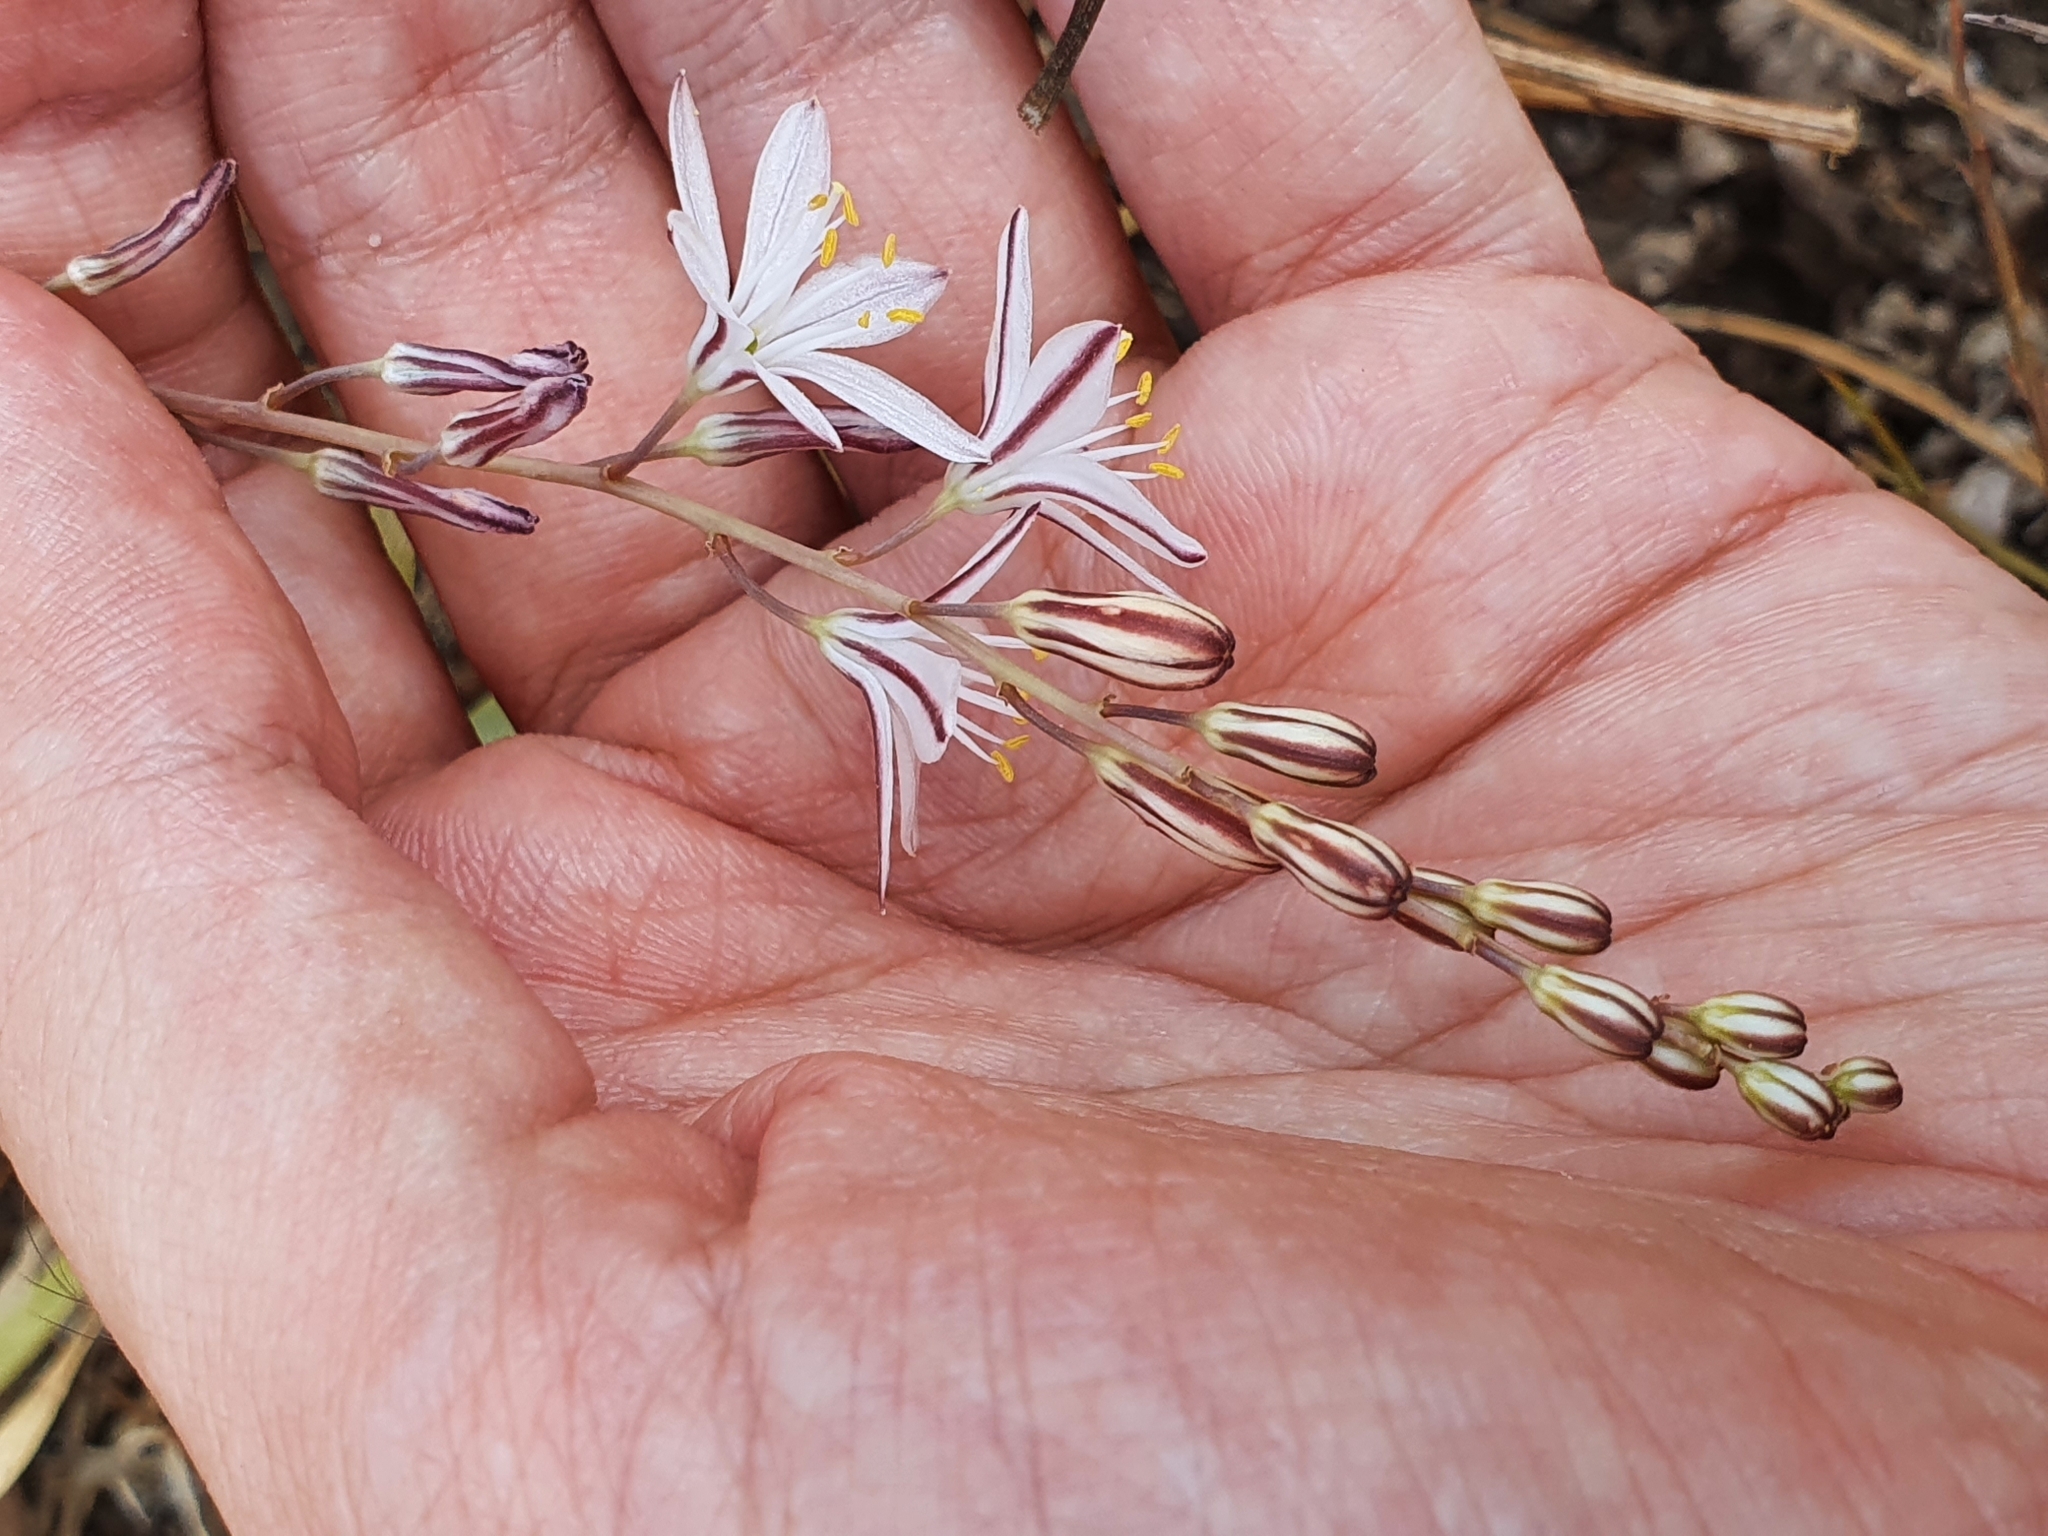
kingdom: Plantae
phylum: Tracheophyta
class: Liliopsida
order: Asparagales
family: Asparagaceae
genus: Drimia
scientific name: Drimia fugax
